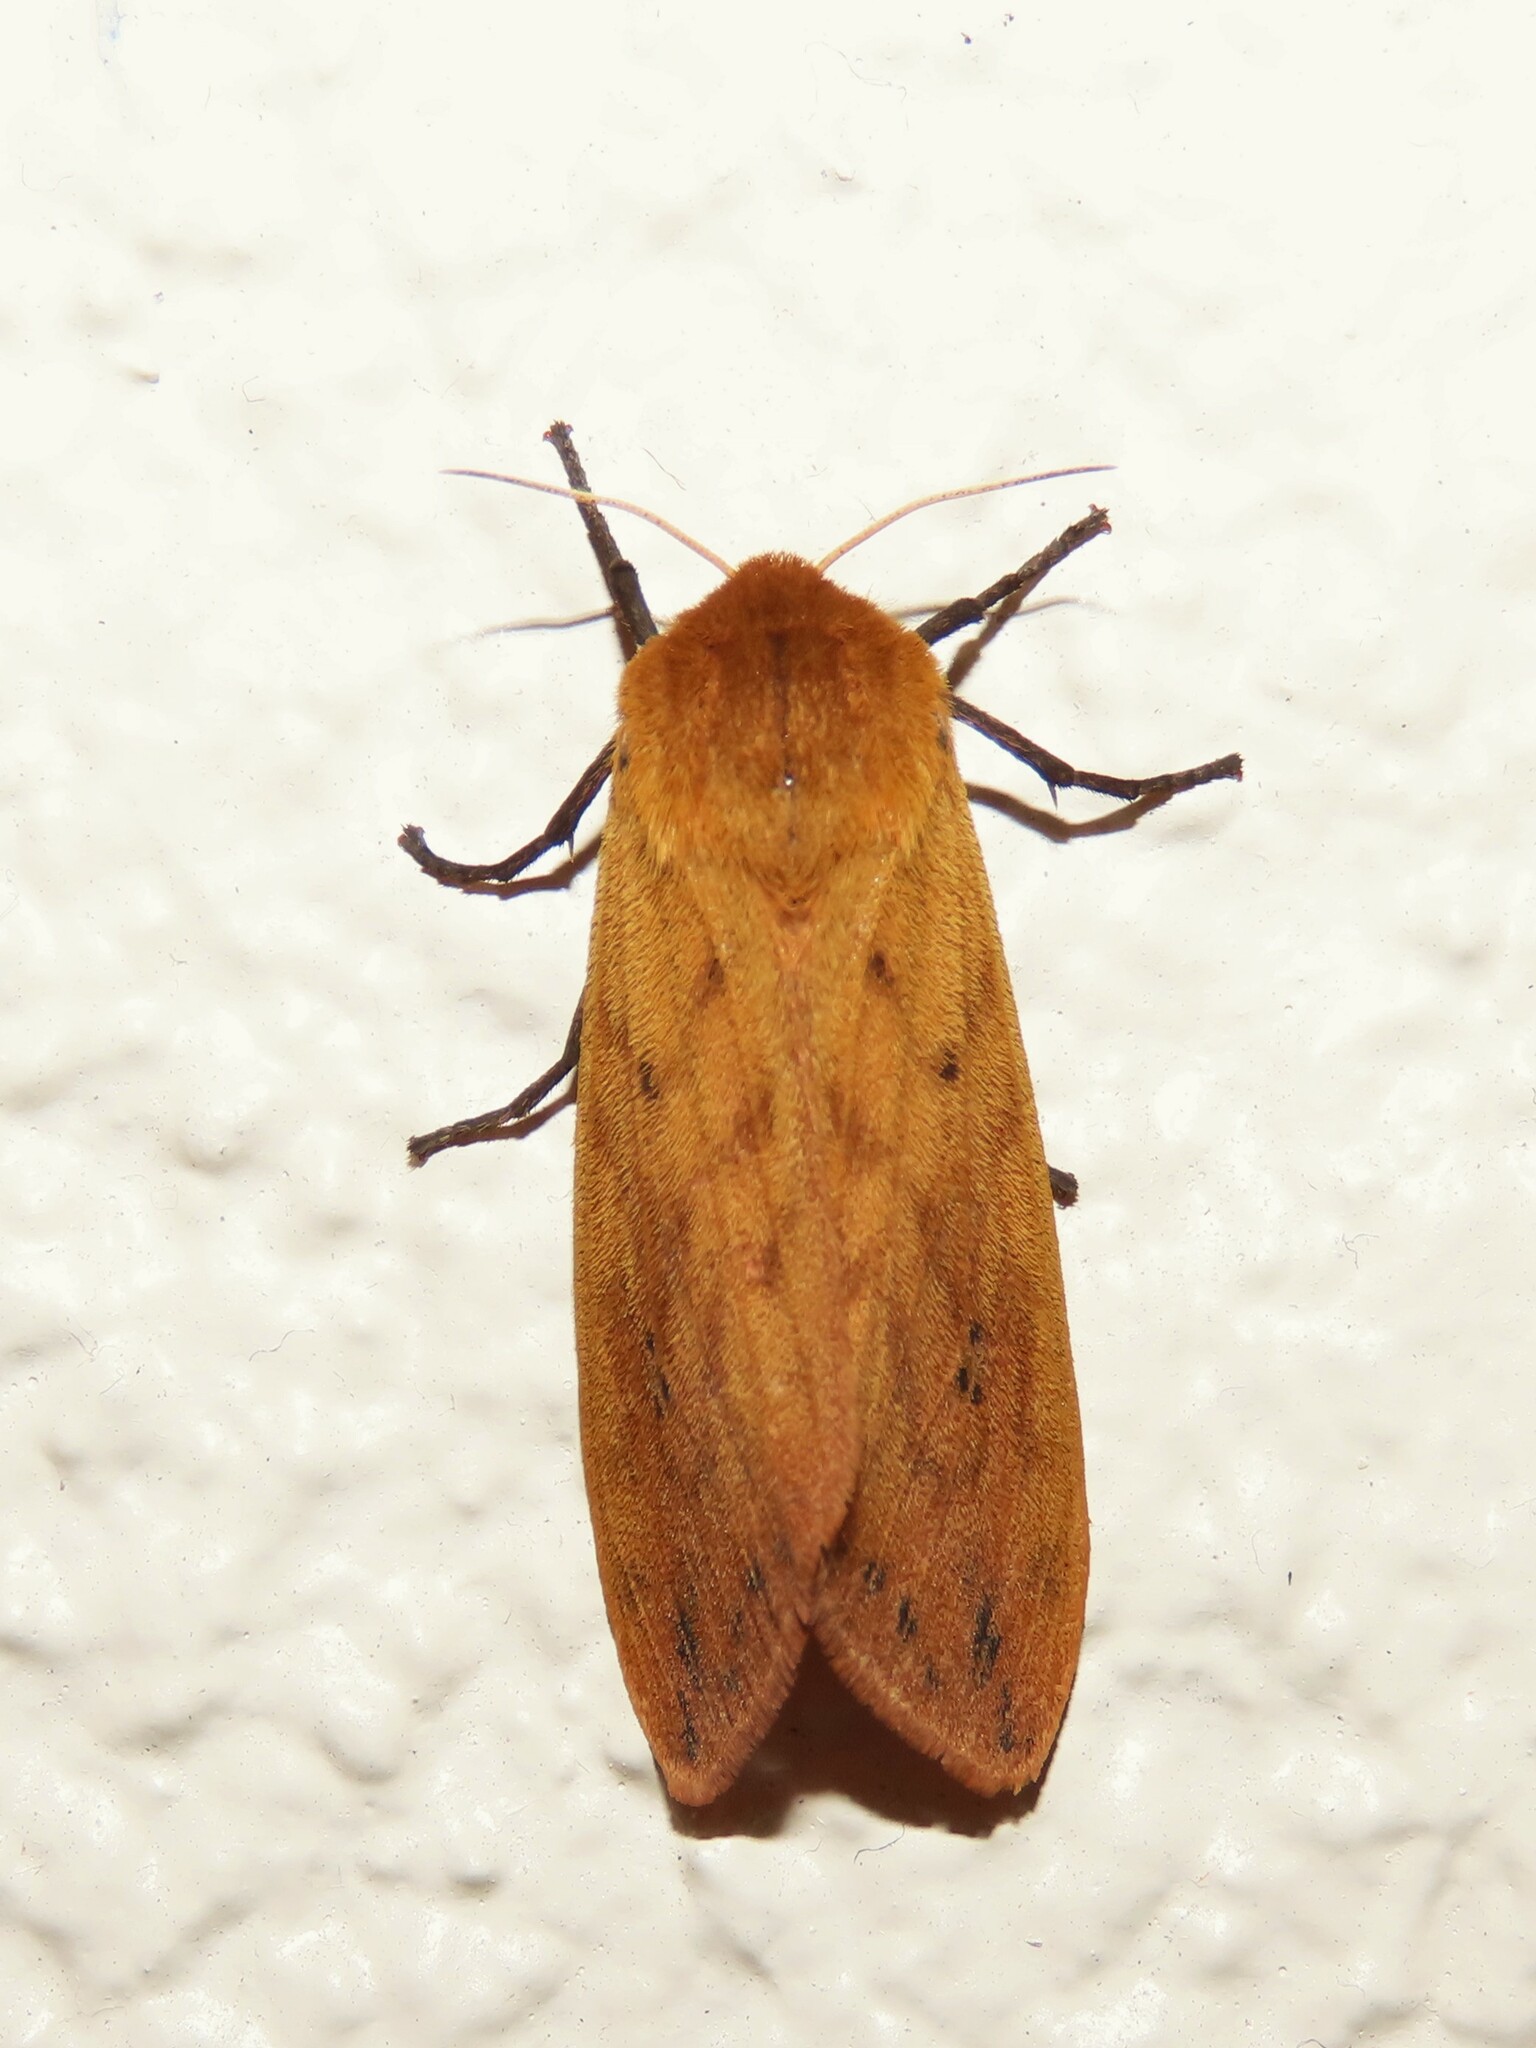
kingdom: Animalia
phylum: Arthropoda
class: Insecta
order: Lepidoptera
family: Erebidae
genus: Pyrrharctia
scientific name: Pyrrharctia isabella
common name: Isabella tiger moth
